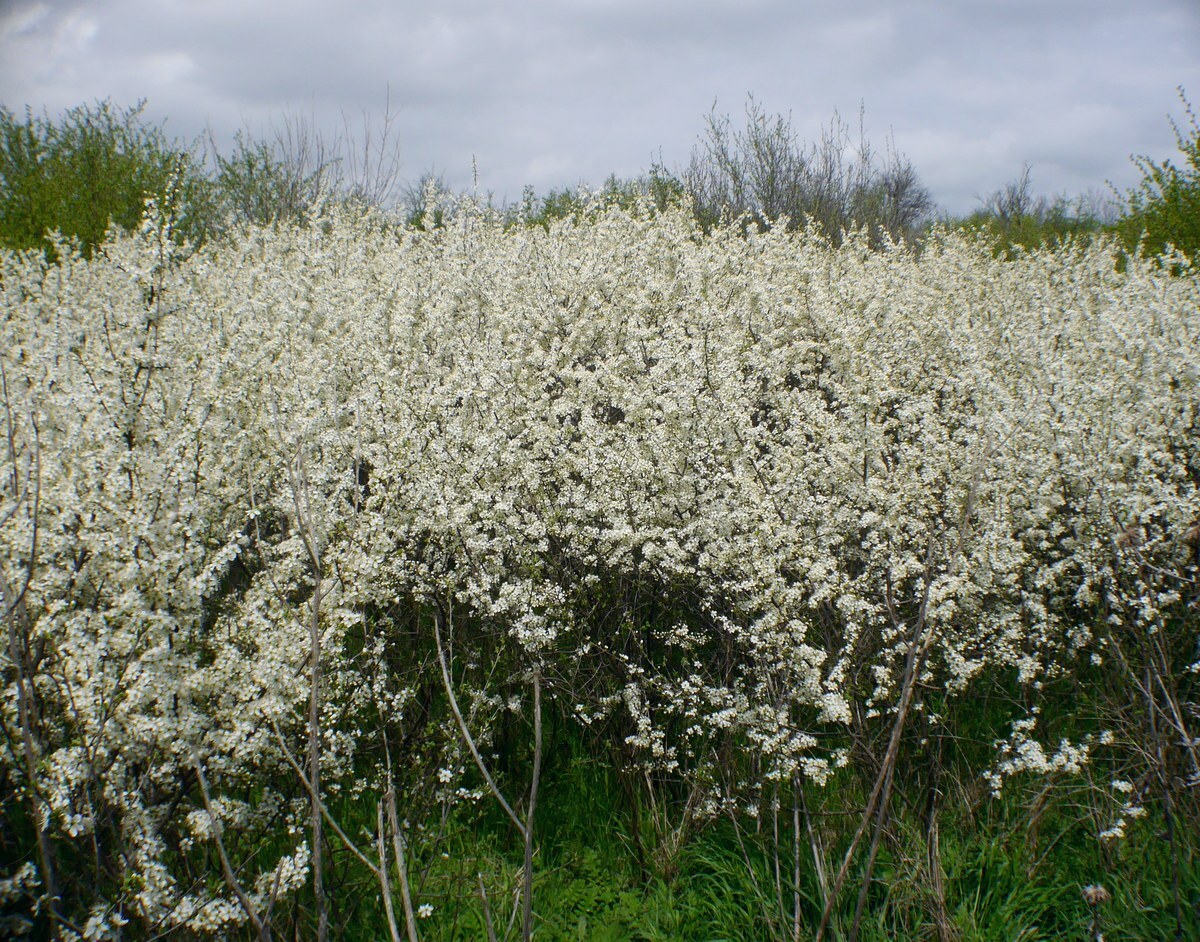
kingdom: Plantae
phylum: Tracheophyta
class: Magnoliopsida
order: Rosales
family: Rosaceae
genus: Prunus
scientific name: Prunus spinosa
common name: Blackthorn
